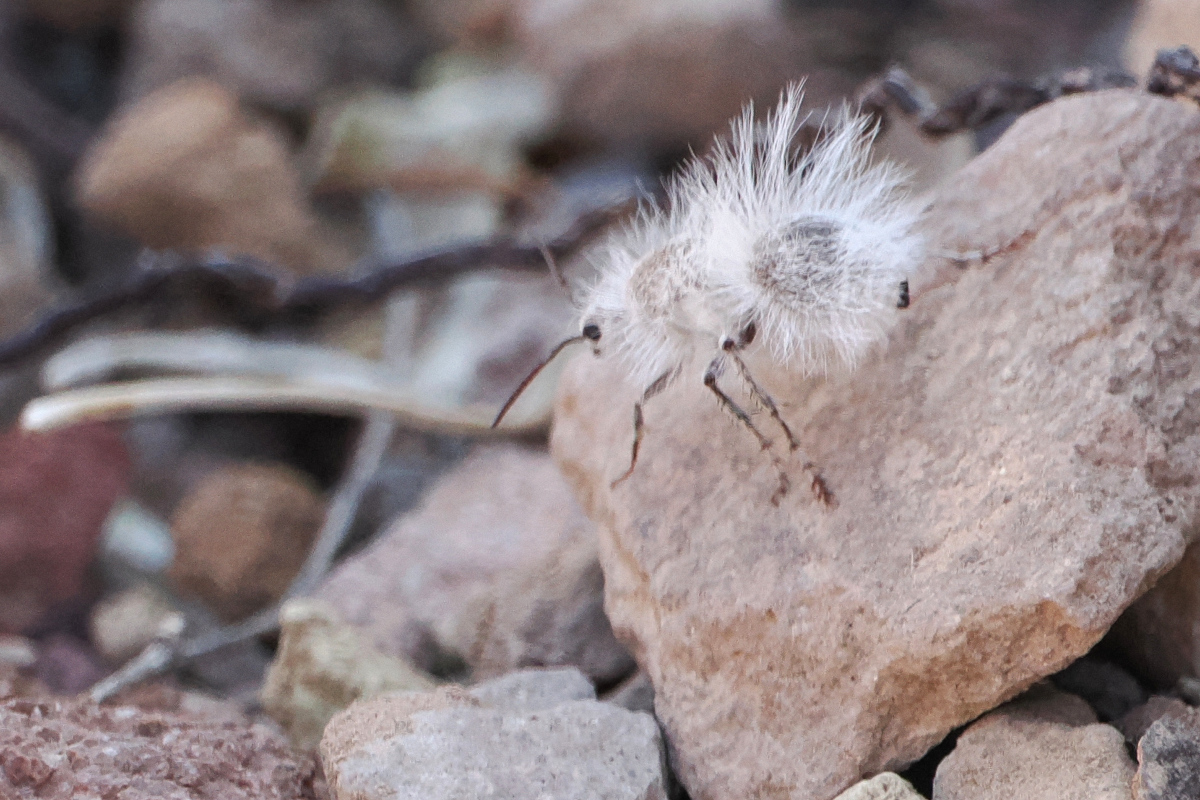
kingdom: Animalia
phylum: Arthropoda
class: Insecta
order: Hymenoptera
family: Mutillidae
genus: Dasymutilla
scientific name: Dasymutilla gloriosa
